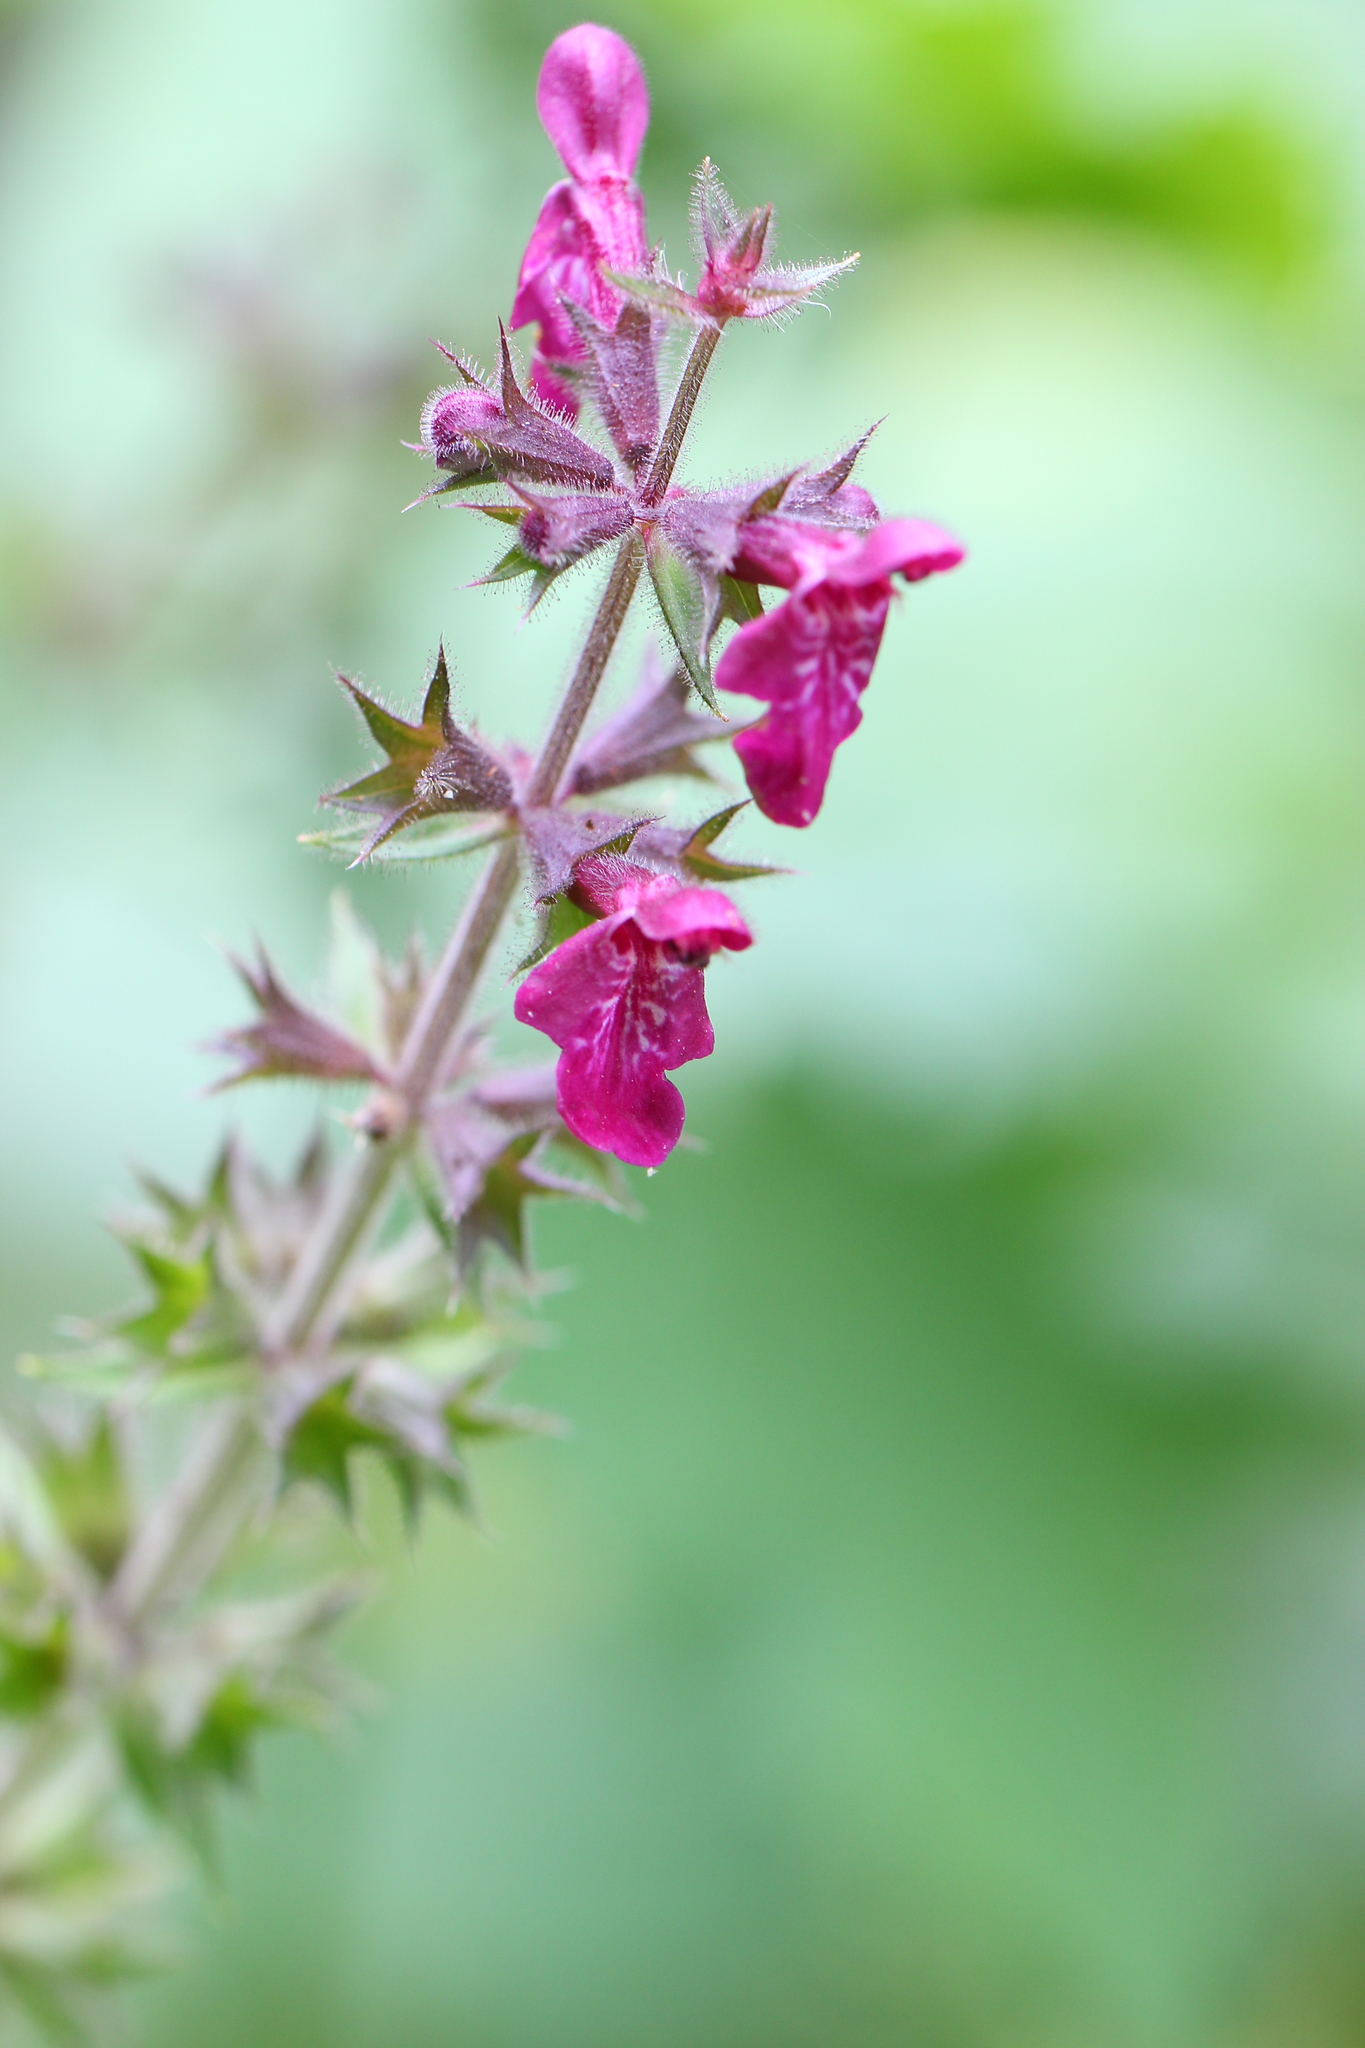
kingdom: Plantae
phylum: Tracheophyta
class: Magnoliopsida
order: Lamiales
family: Lamiaceae
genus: Stachys
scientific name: Stachys sylvatica
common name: Hedge woundwort
